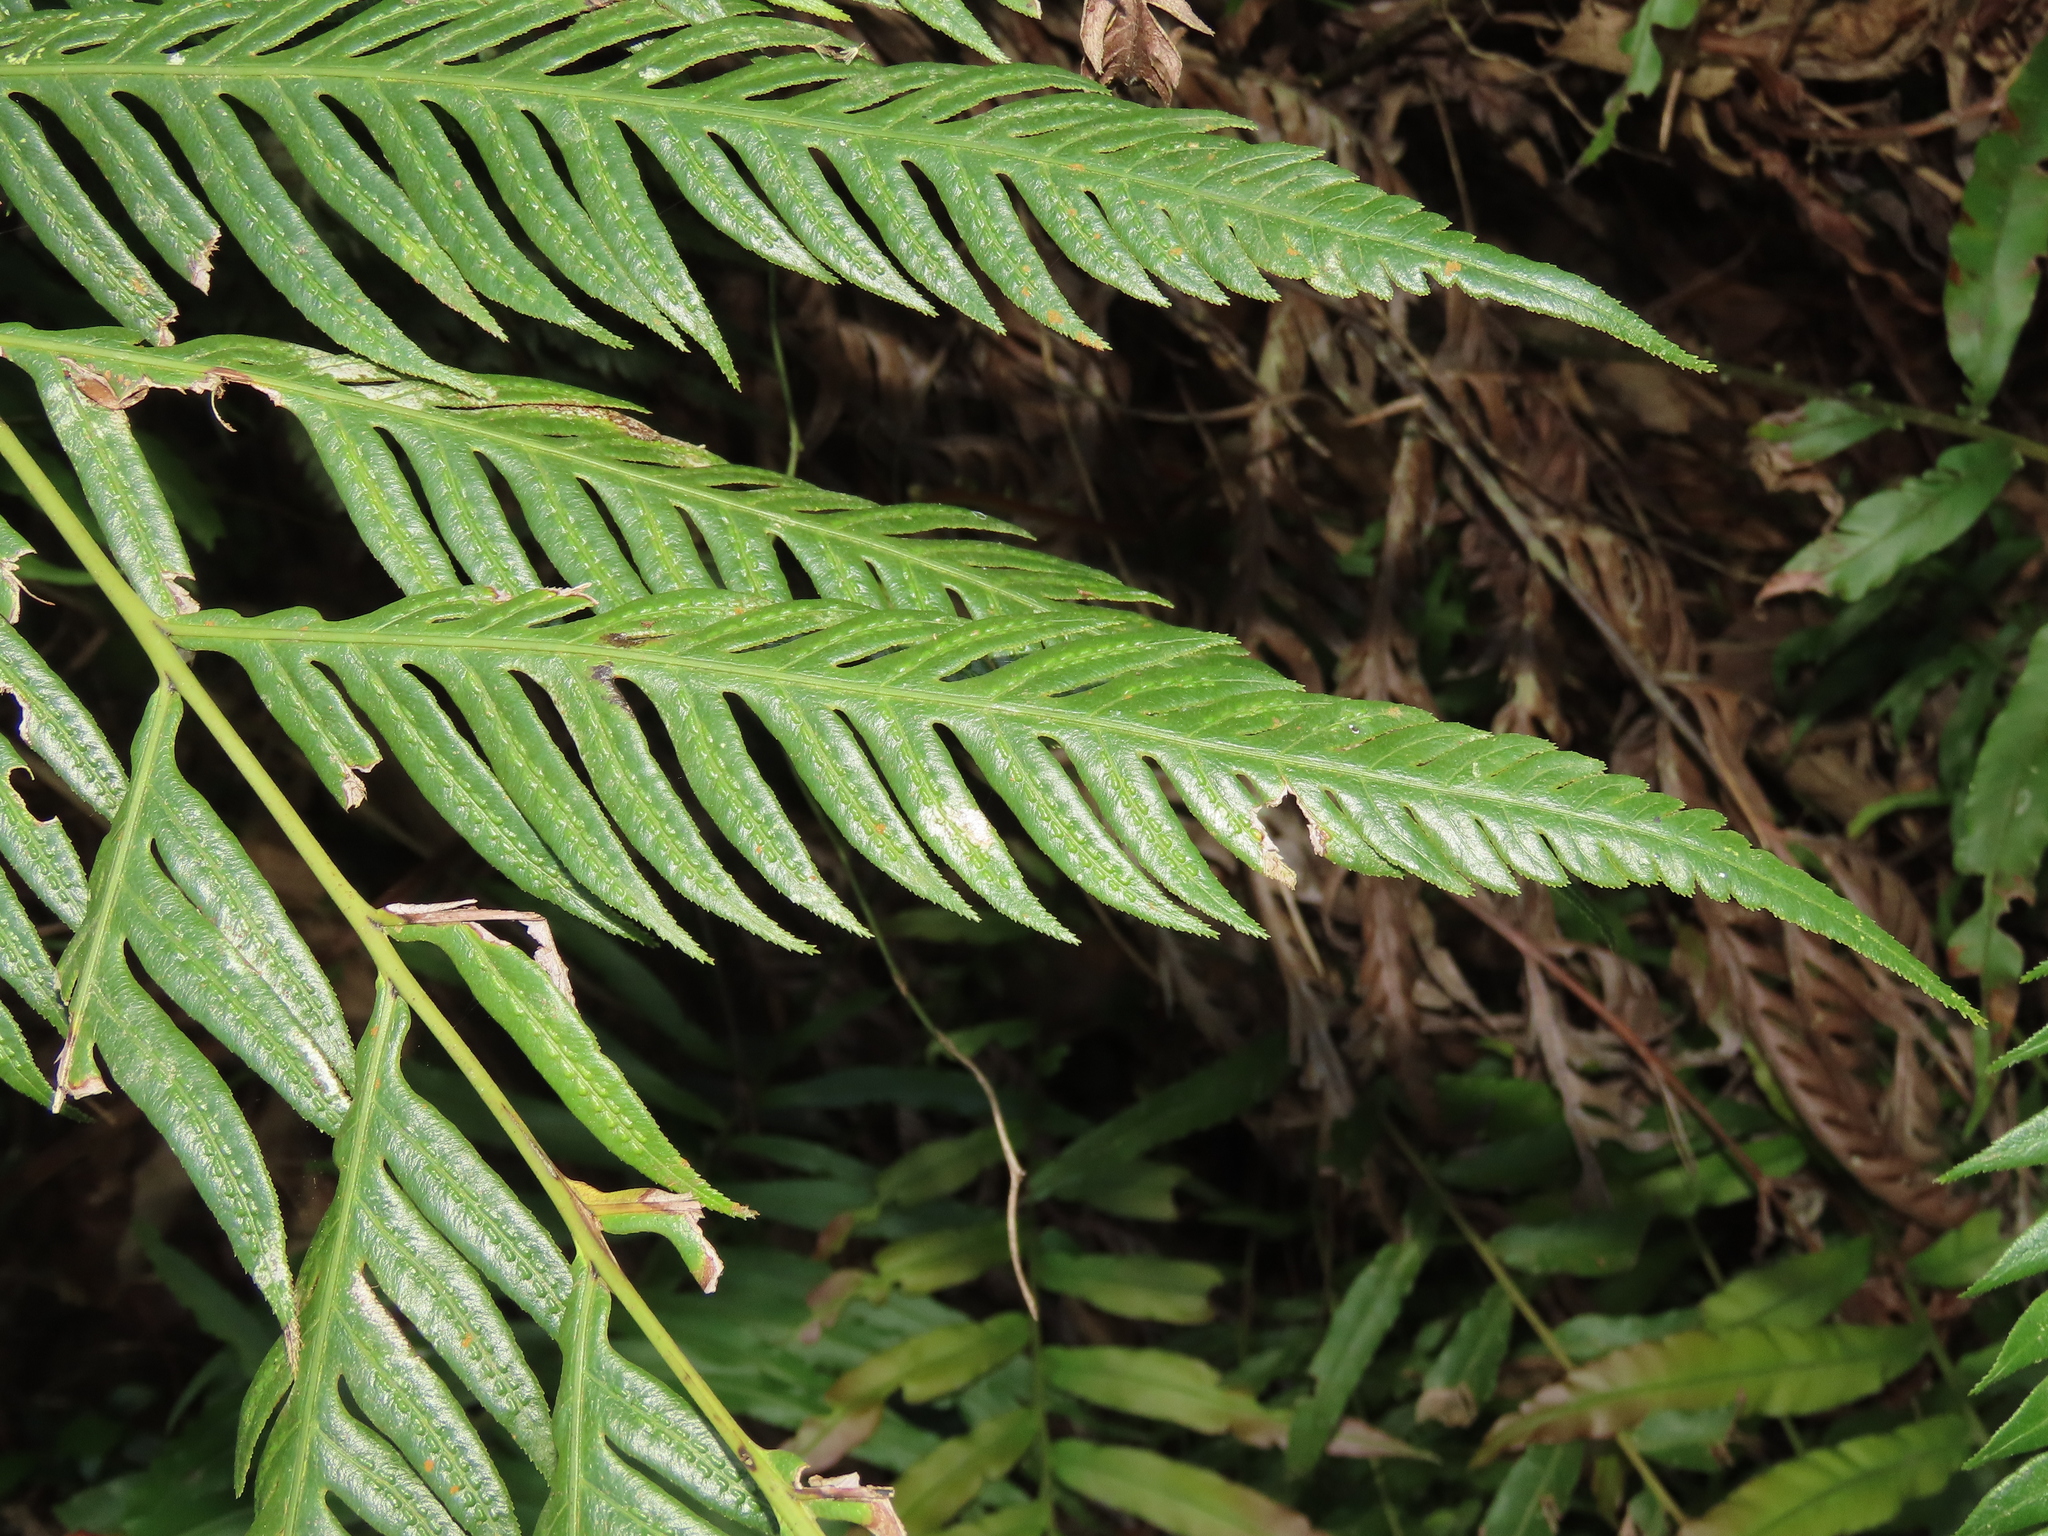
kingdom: Plantae
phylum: Tracheophyta
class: Polypodiopsida
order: Polypodiales
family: Blechnaceae
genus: Woodwardia
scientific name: Woodwardia prolifera
